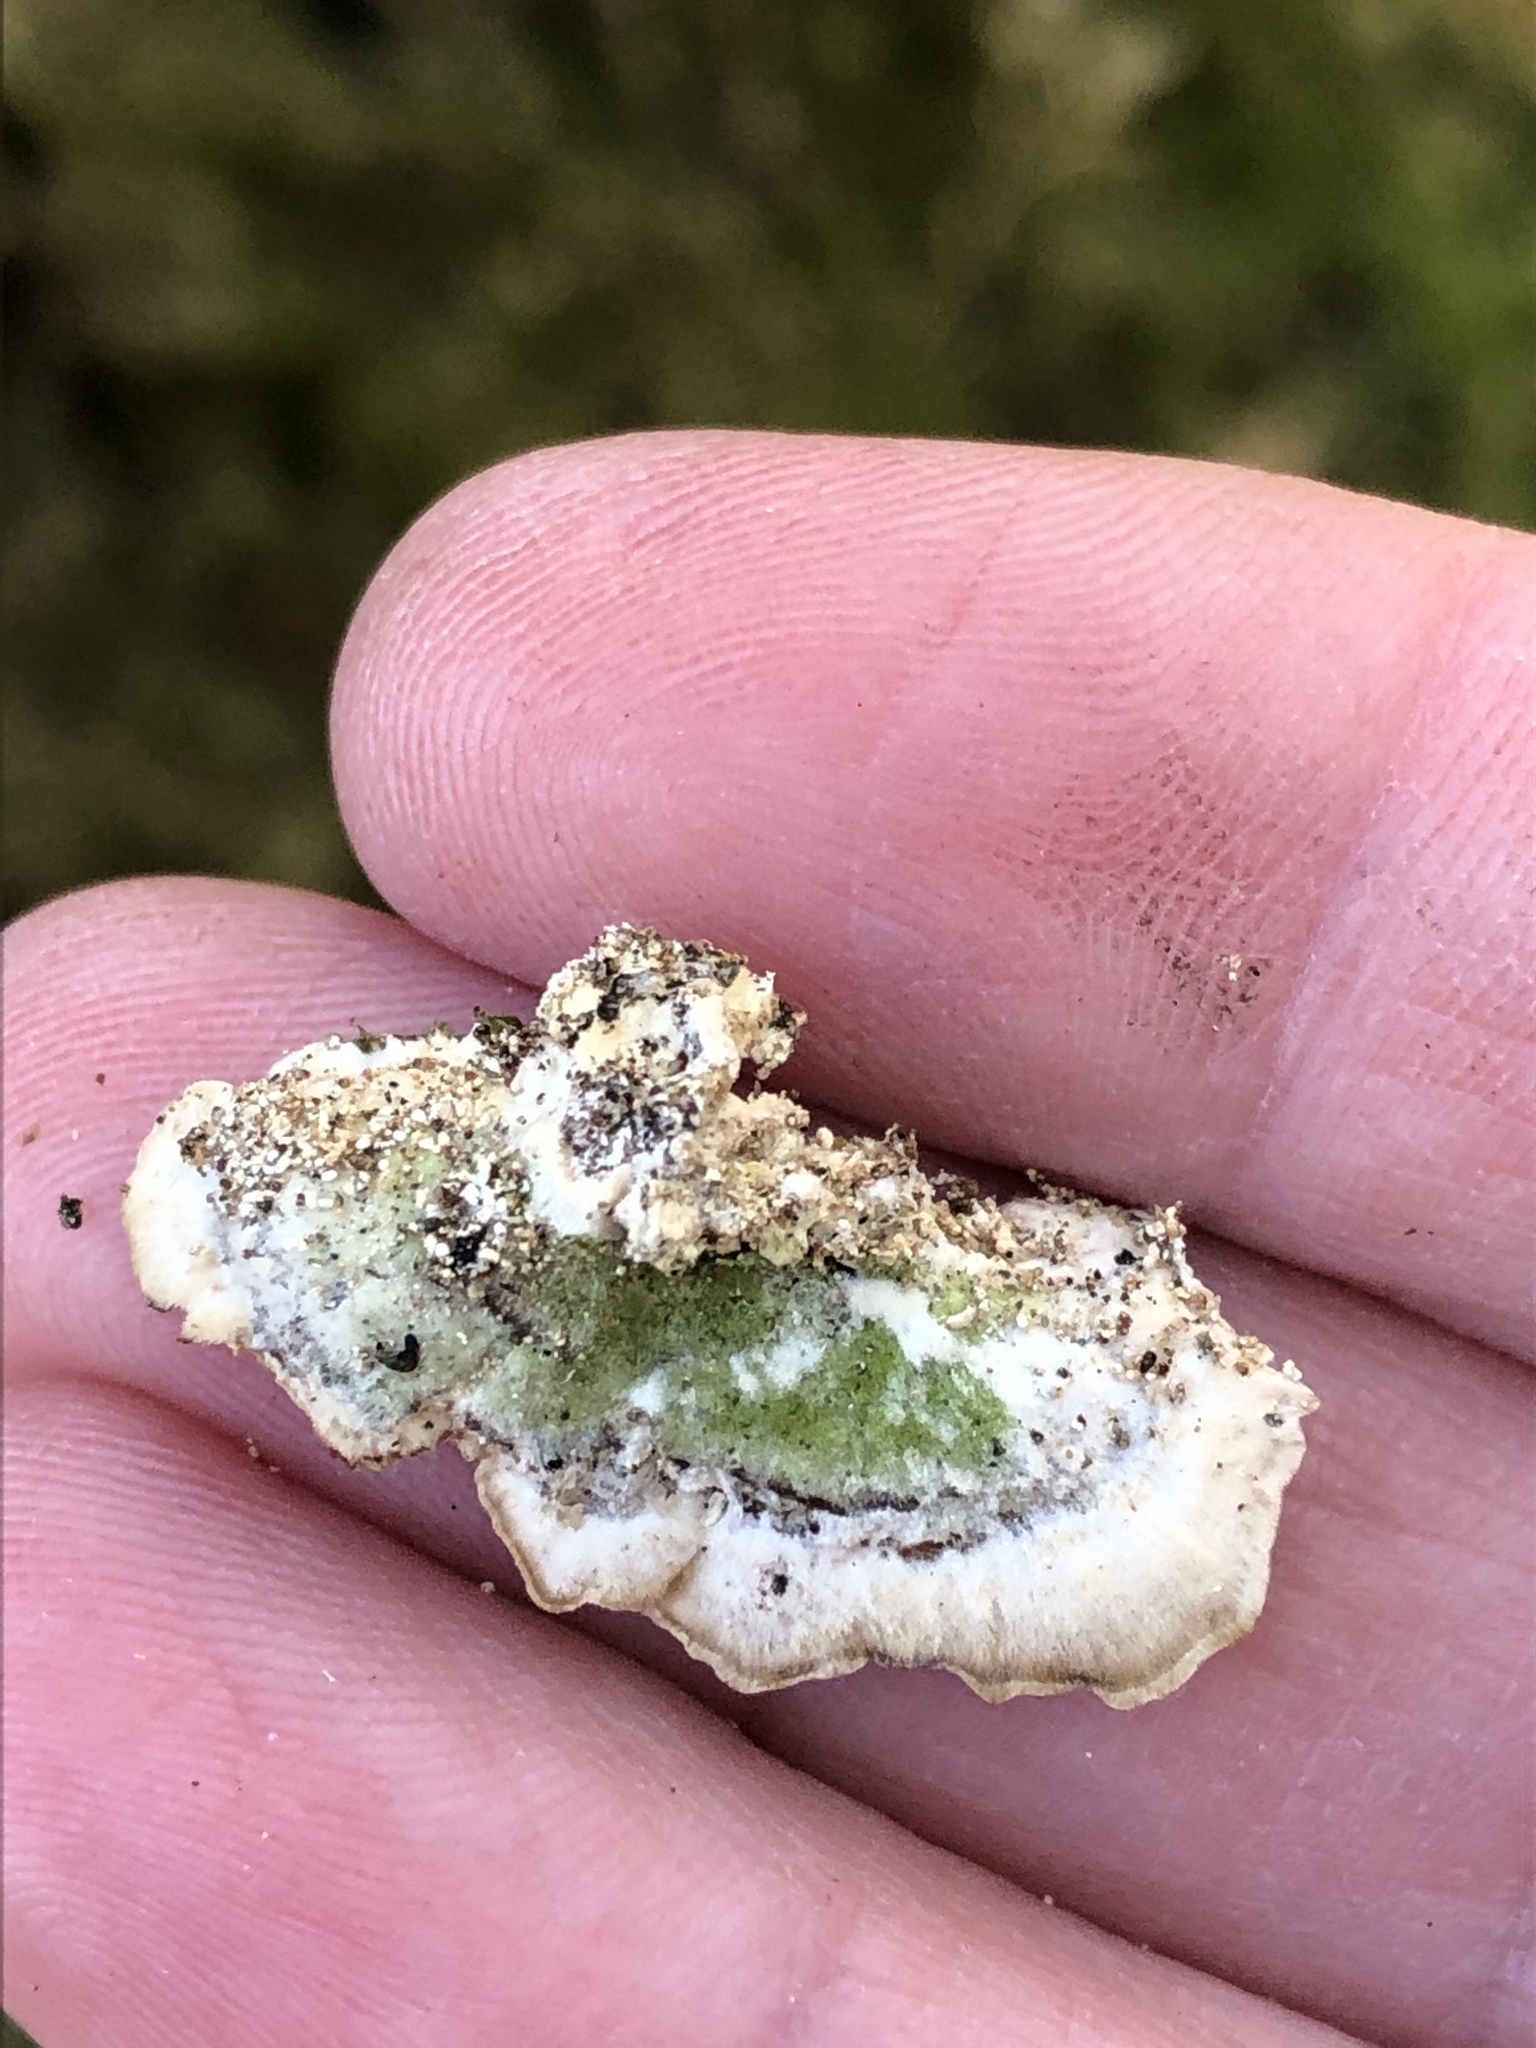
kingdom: Fungi
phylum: Basidiomycota
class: Agaricomycetes
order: Hymenochaetales
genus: Trichaptum
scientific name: Trichaptum abietinum
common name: Purplepore bracket
